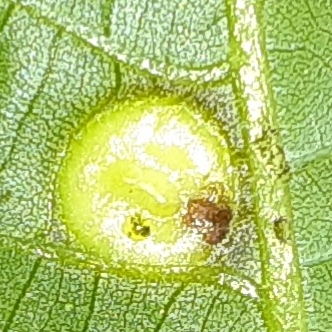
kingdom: Animalia
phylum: Arthropoda
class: Insecta
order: Hemiptera
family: Phylloxeridae
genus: Phylloxera
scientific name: Phylloxera caryae-globuli
